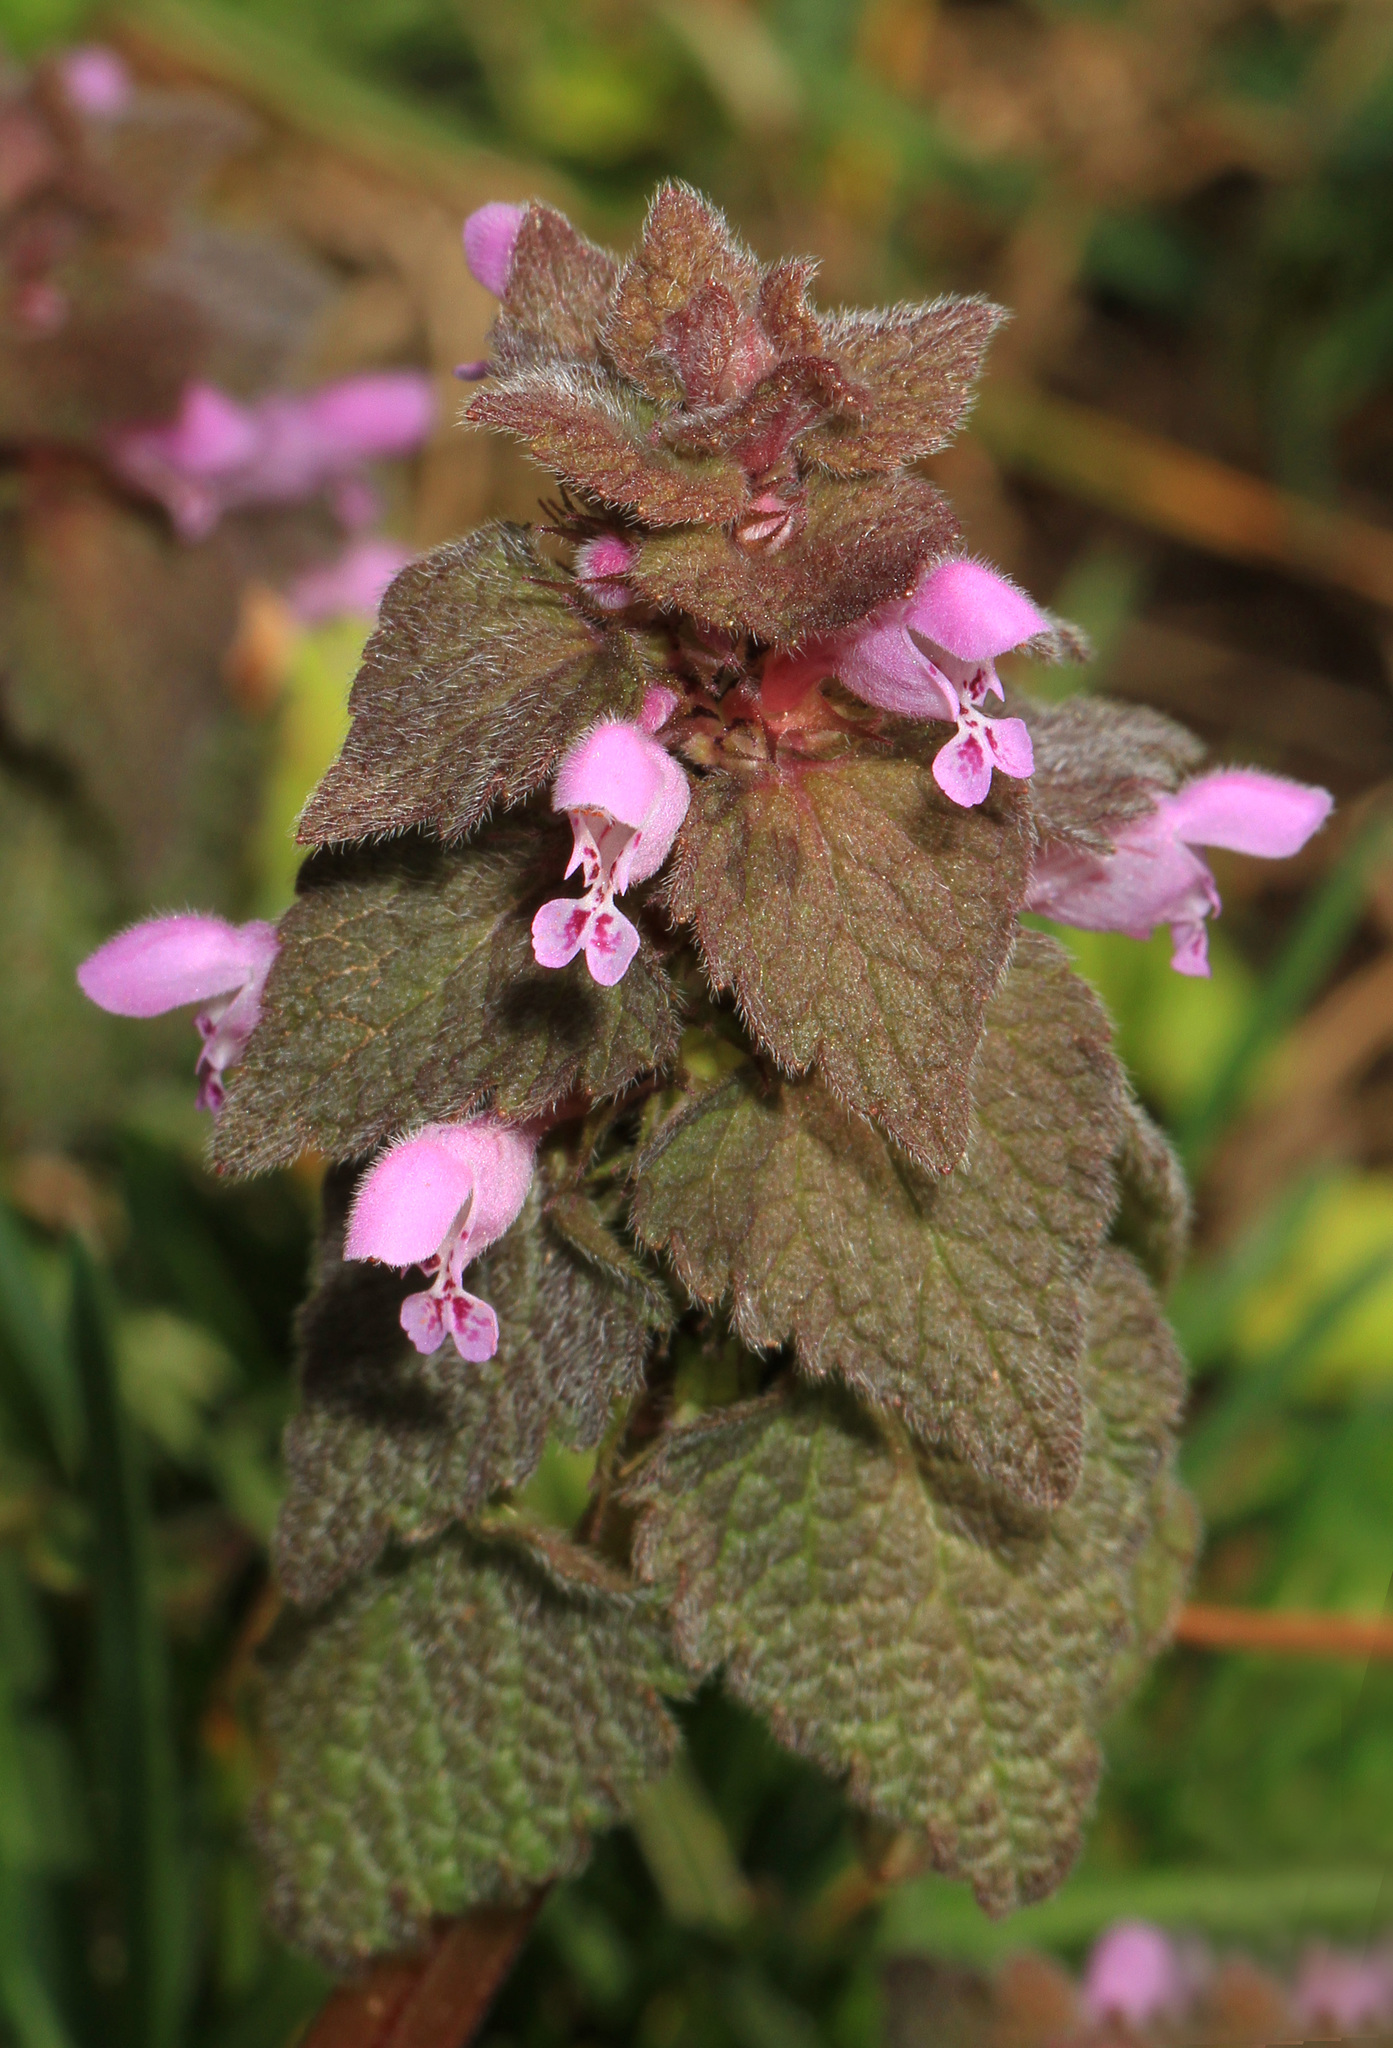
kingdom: Plantae
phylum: Tracheophyta
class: Magnoliopsida
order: Lamiales
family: Lamiaceae
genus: Lamium
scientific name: Lamium purpureum
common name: Red dead-nettle
